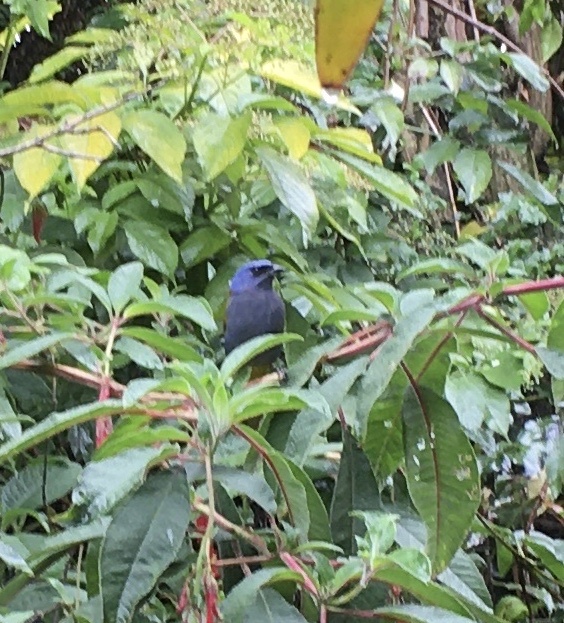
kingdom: Animalia
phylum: Chordata
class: Aves
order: Passeriformes
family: Thraupidae
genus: Sporathraupis
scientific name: Sporathraupis cyanocephala
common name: Blue-capped tanager
